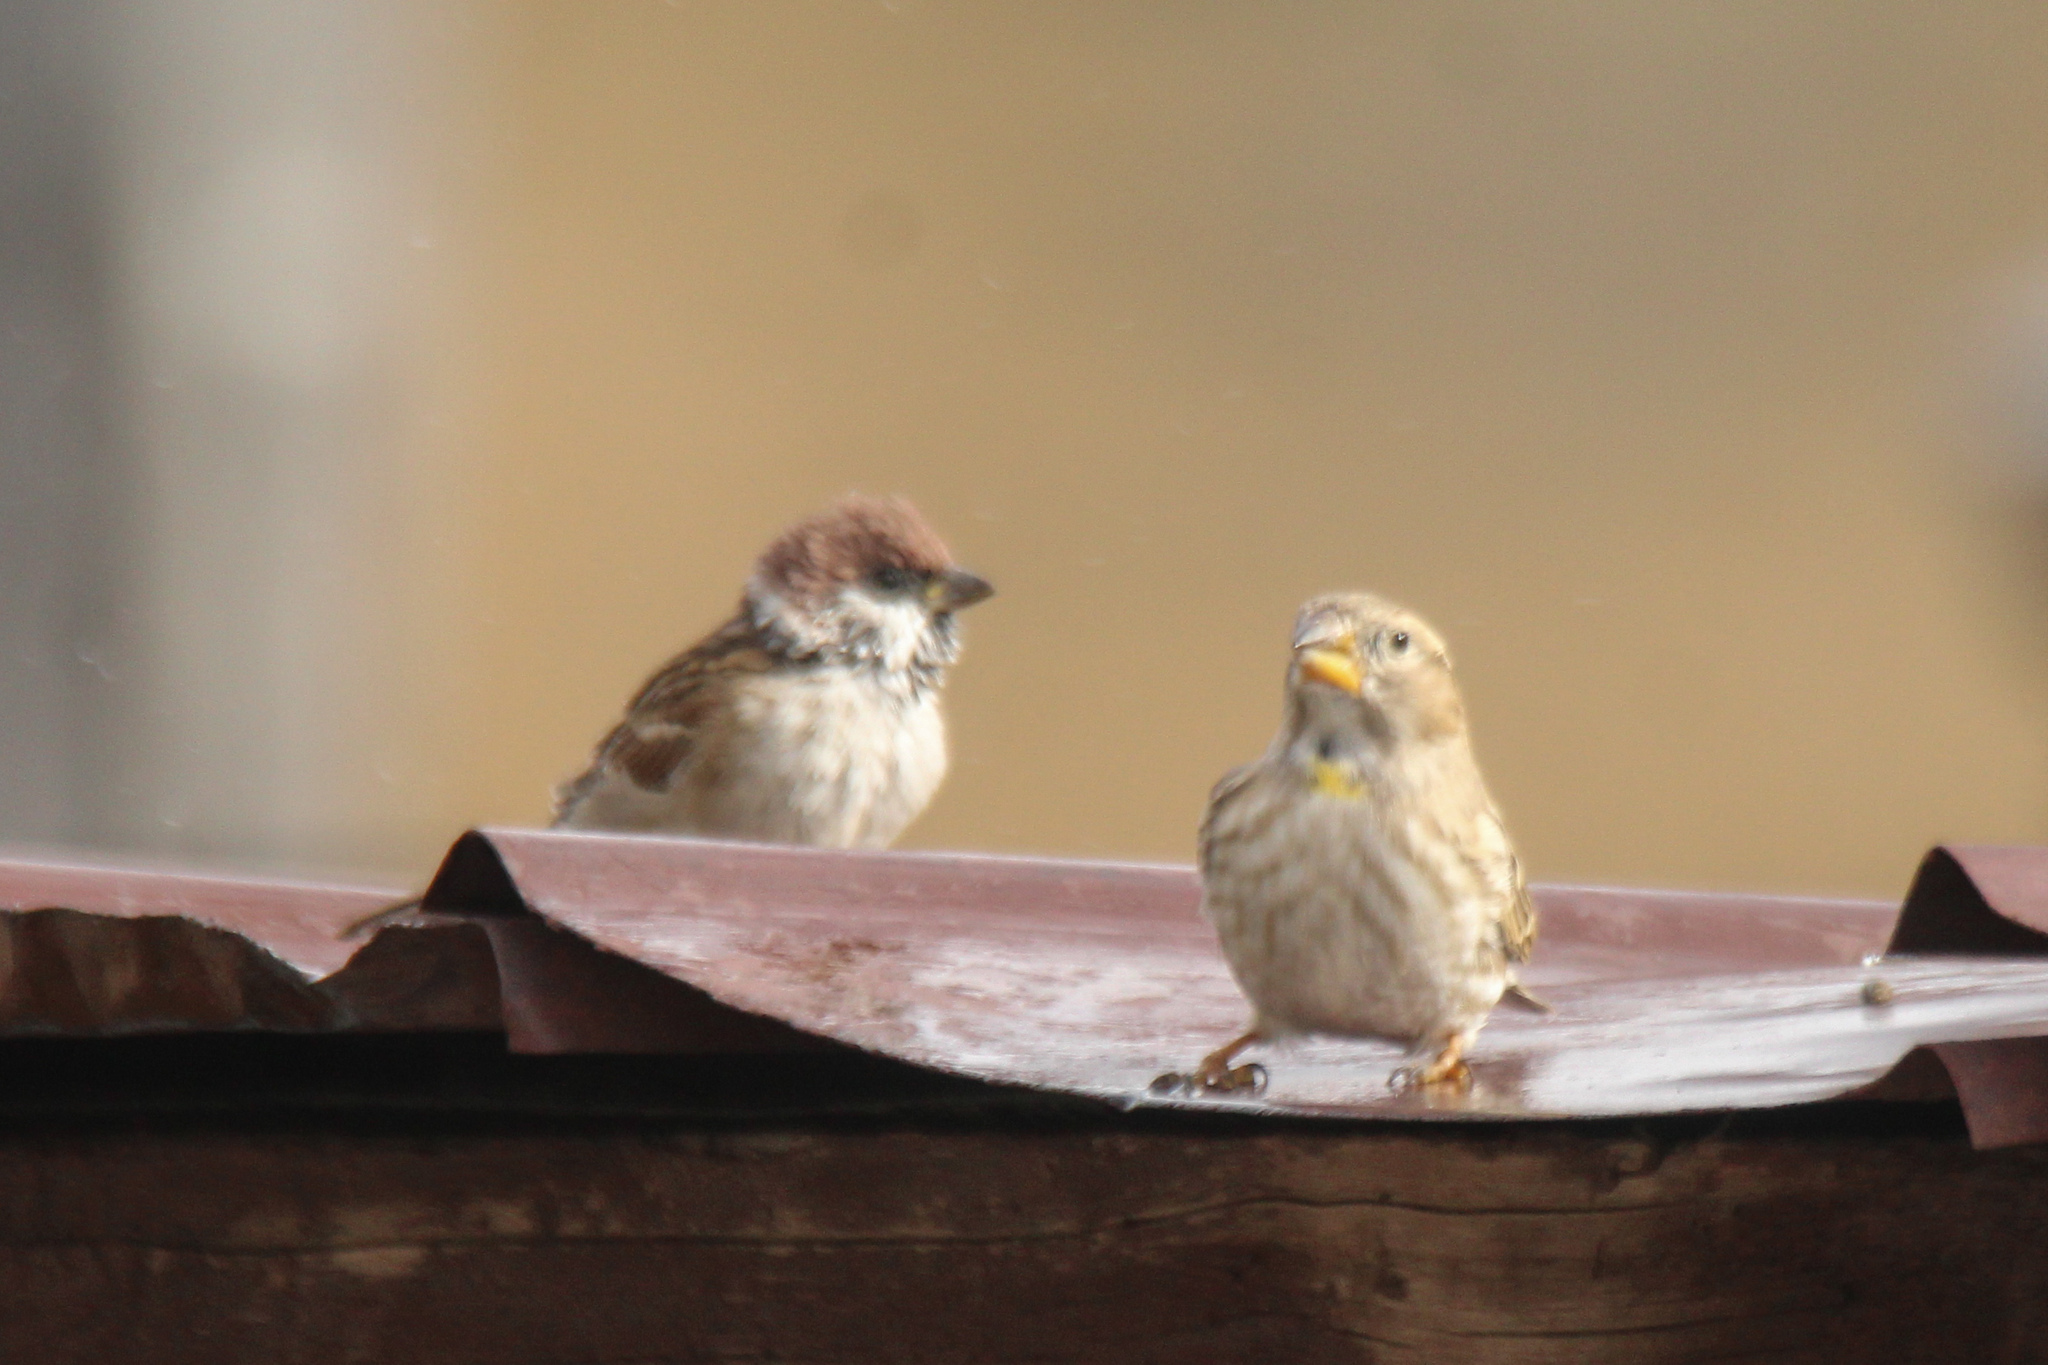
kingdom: Animalia
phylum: Chordata
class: Aves
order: Passeriformes
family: Passeridae
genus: Petronia
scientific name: Petronia petronia
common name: Rock sparrow
